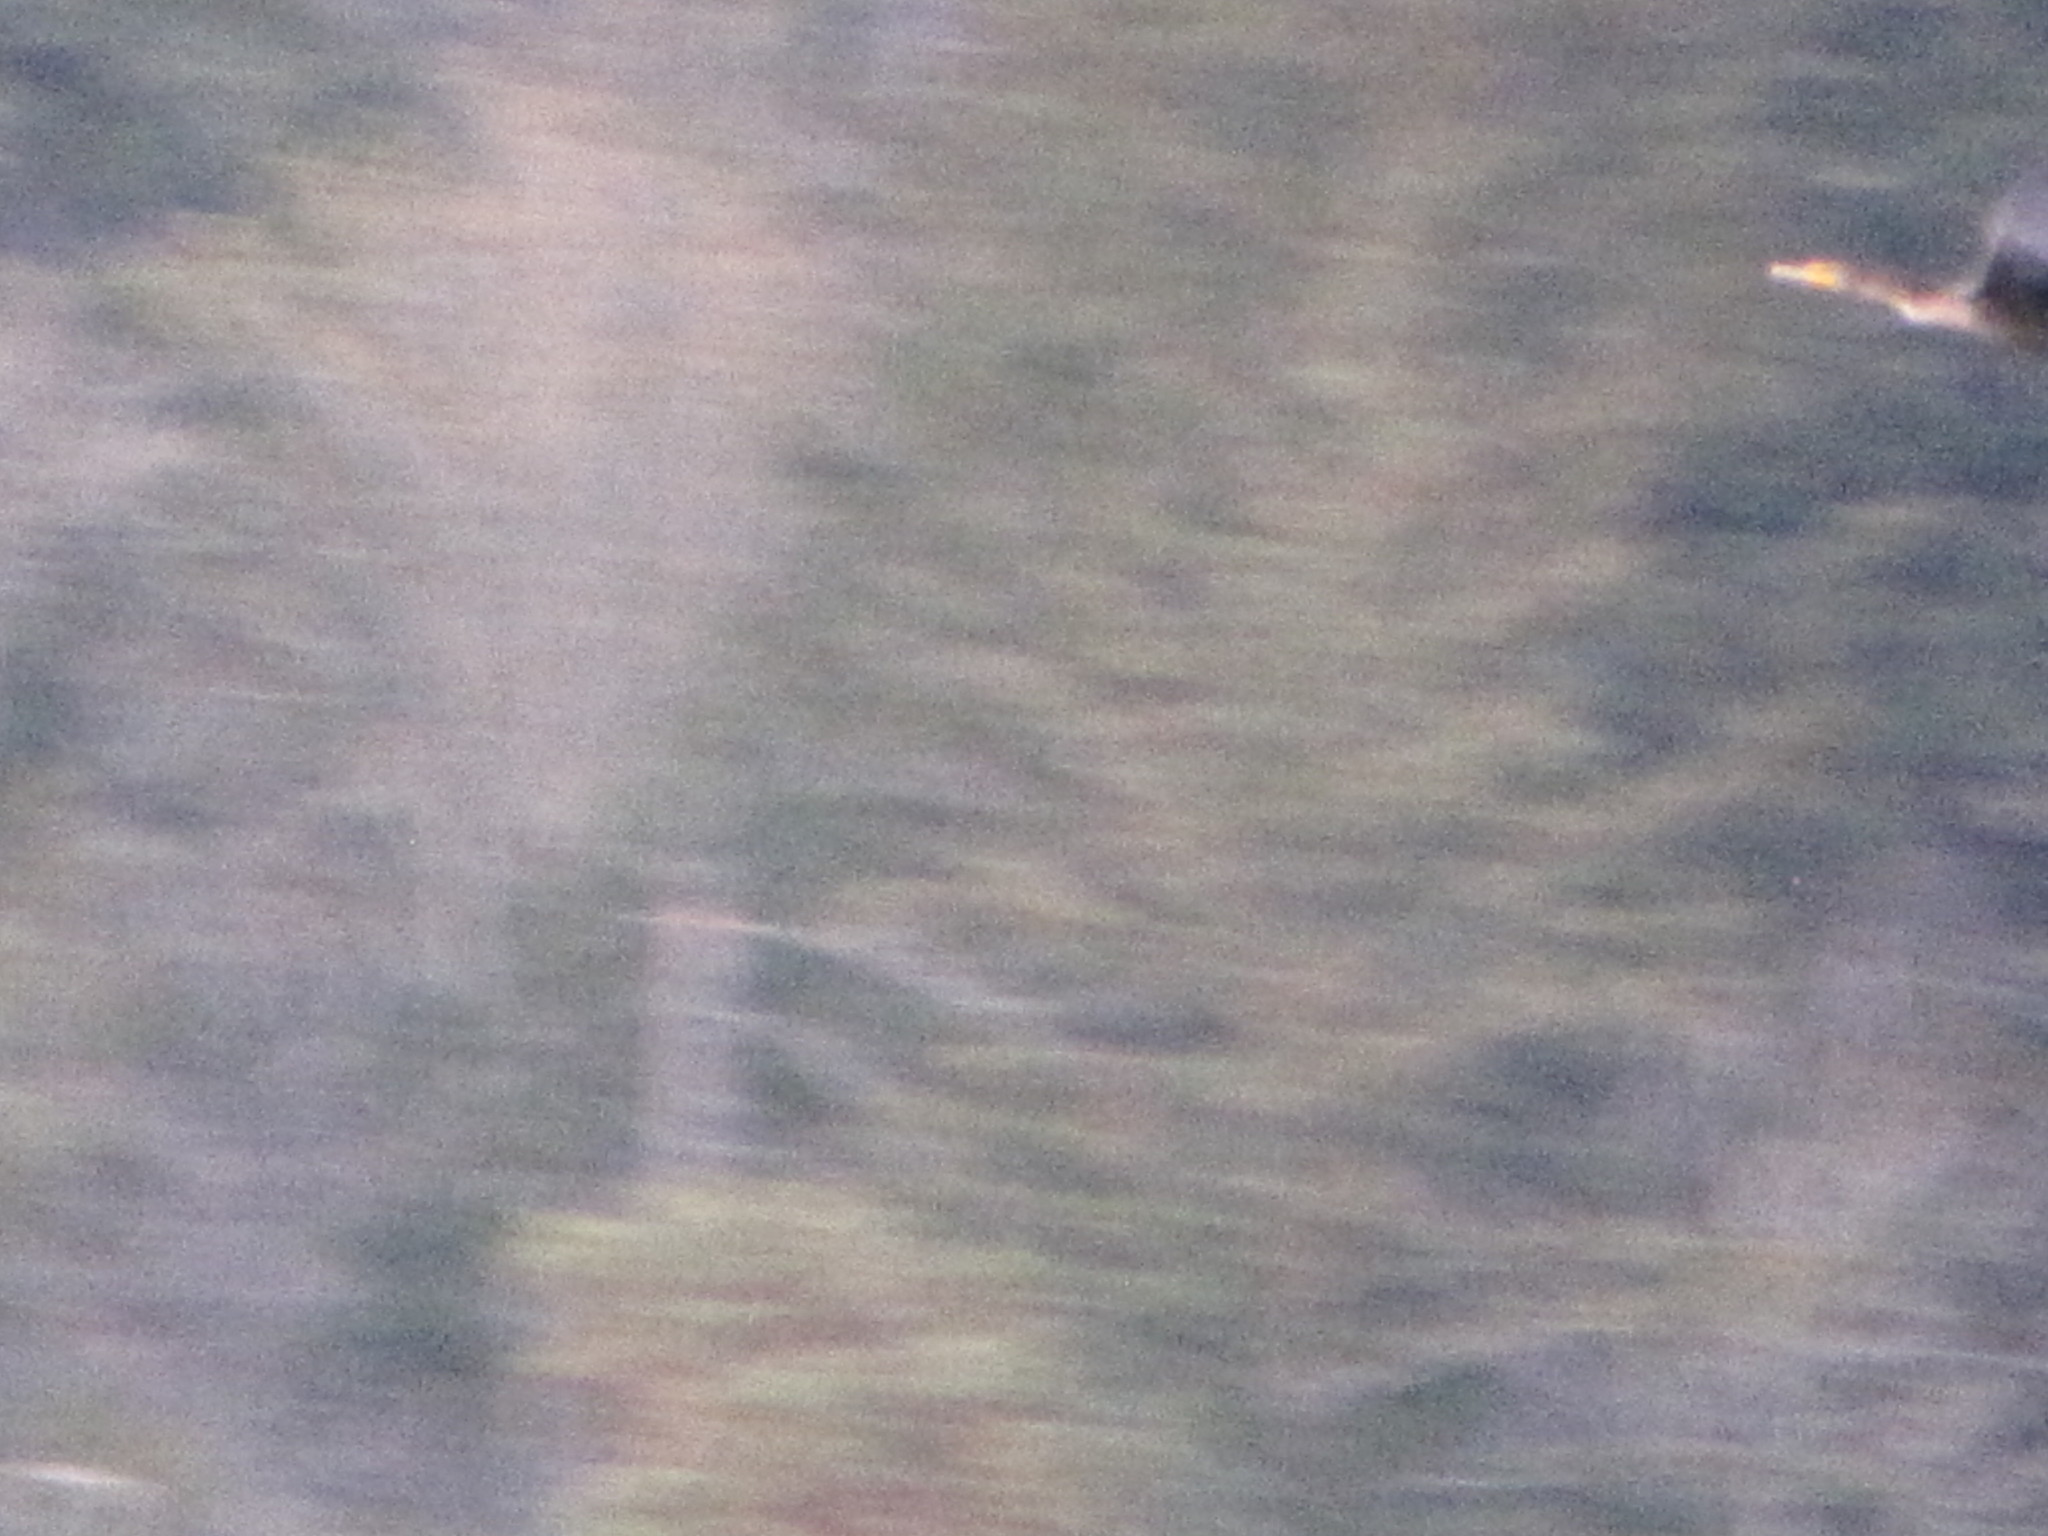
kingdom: Animalia
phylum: Chordata
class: Aves
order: Suliformes
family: Phalacrocoracidae
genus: Phalacrocorax
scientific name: Phalacrocorax auritus
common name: Double-crested cormorant
